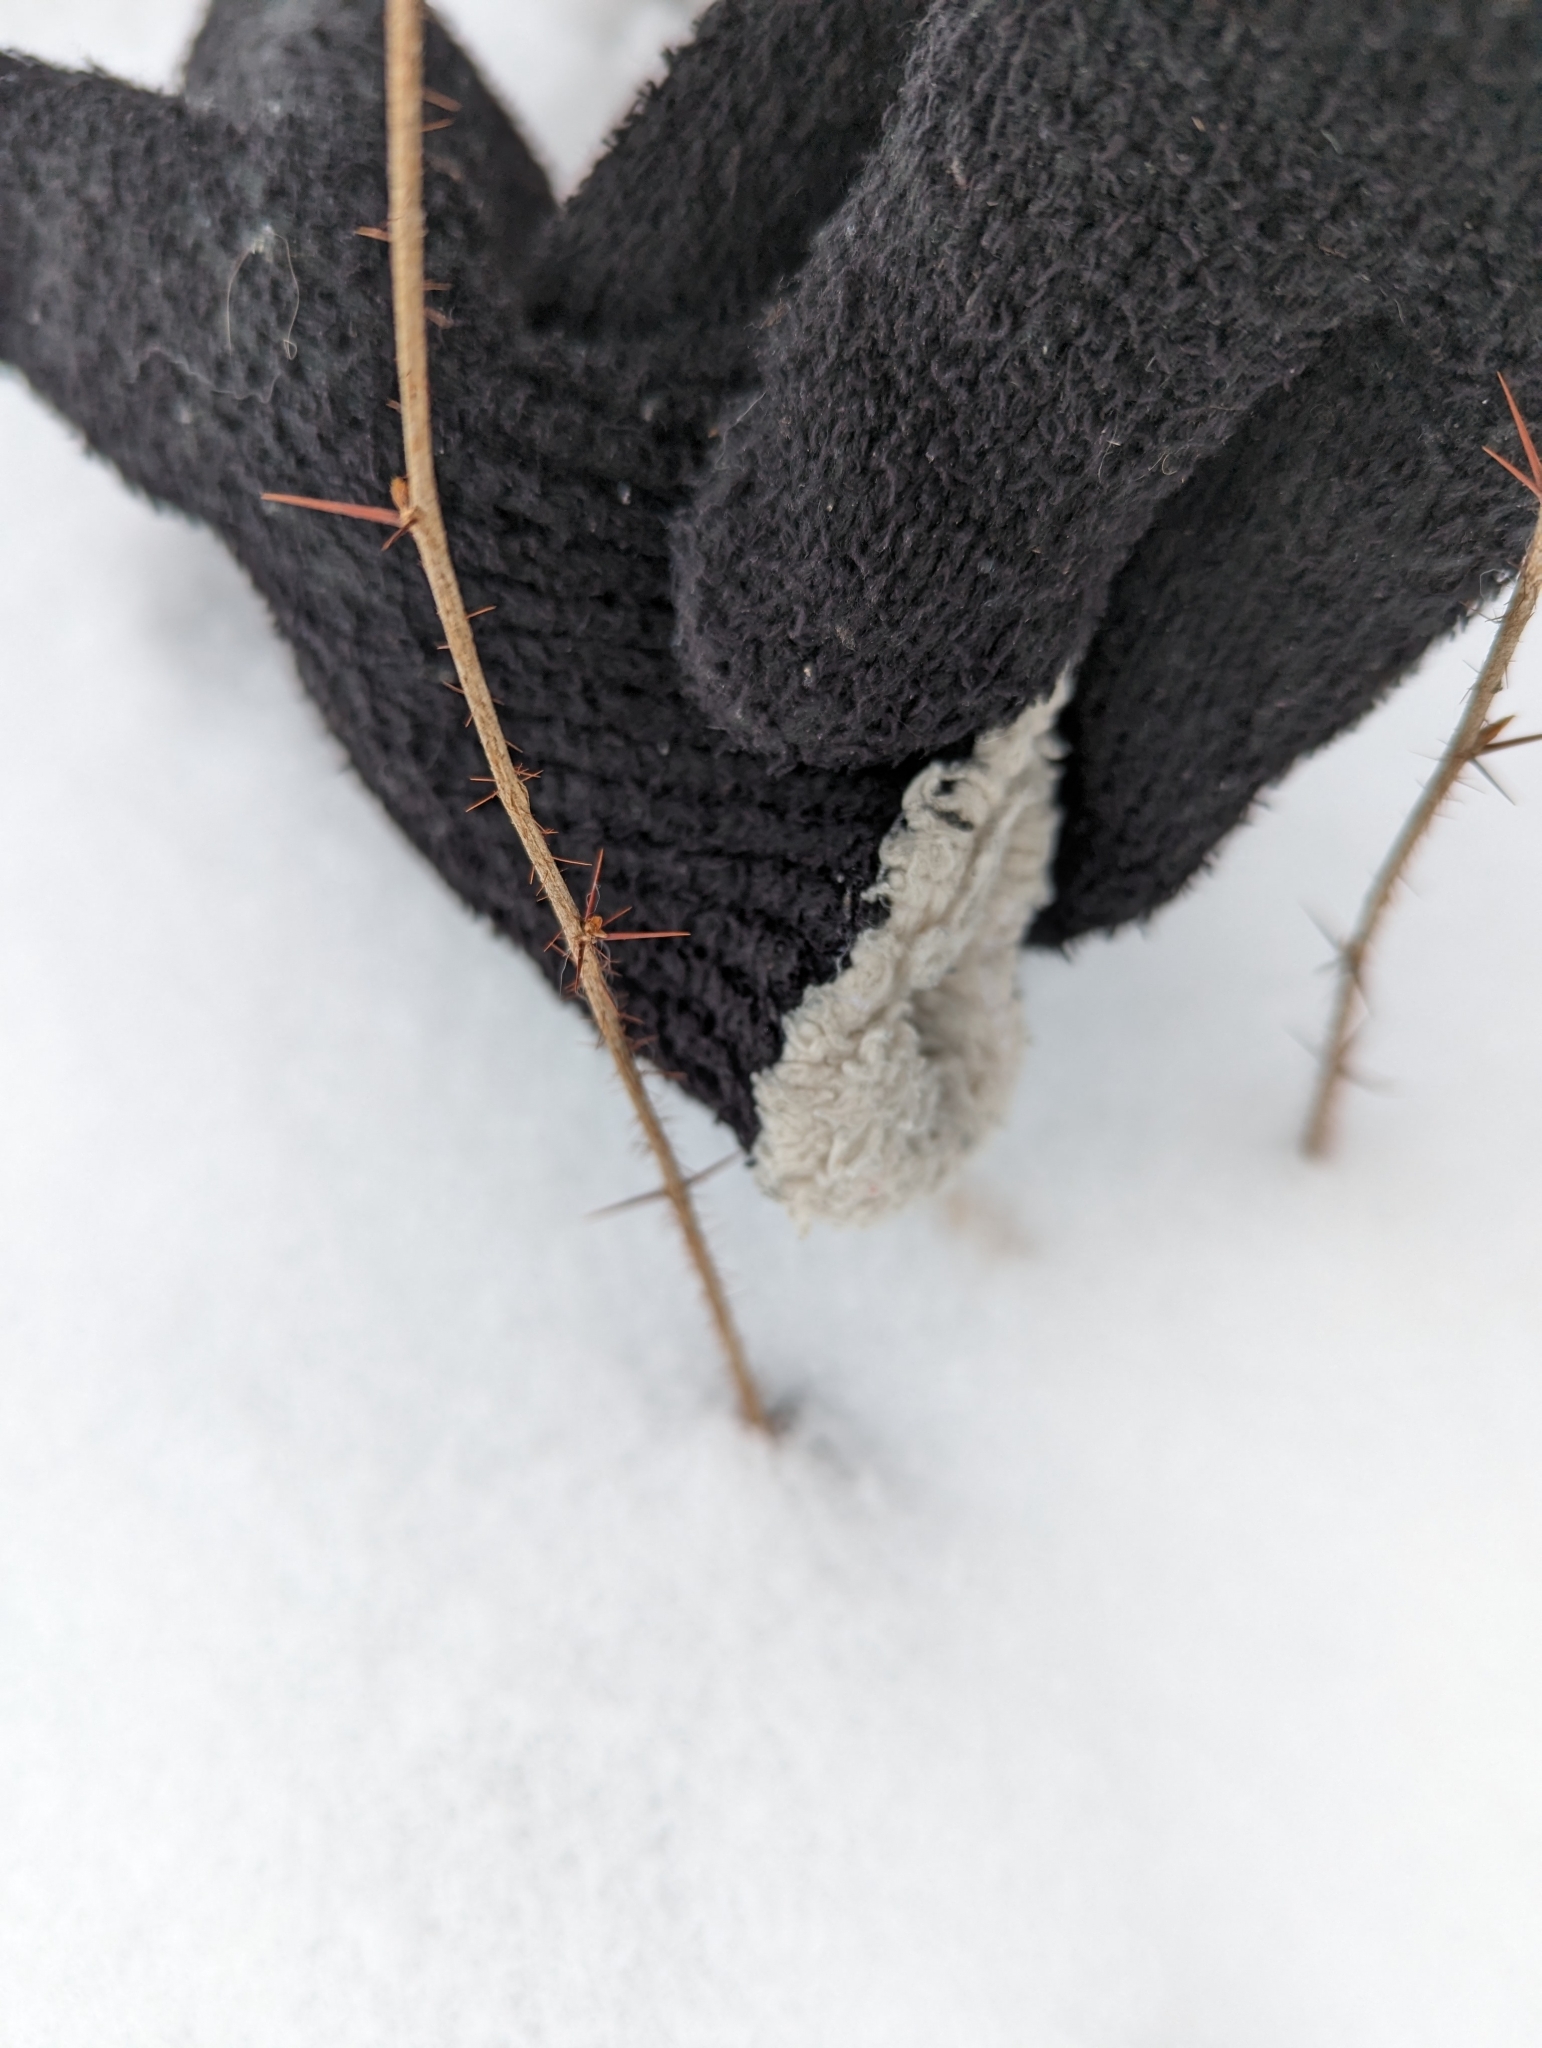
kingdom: Plantae
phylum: Tracheophyta
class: Magnoliopsida
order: Saxifragales
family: Grossulariaceae
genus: Ribes
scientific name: Ribes cynosbati
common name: American gooseberry
